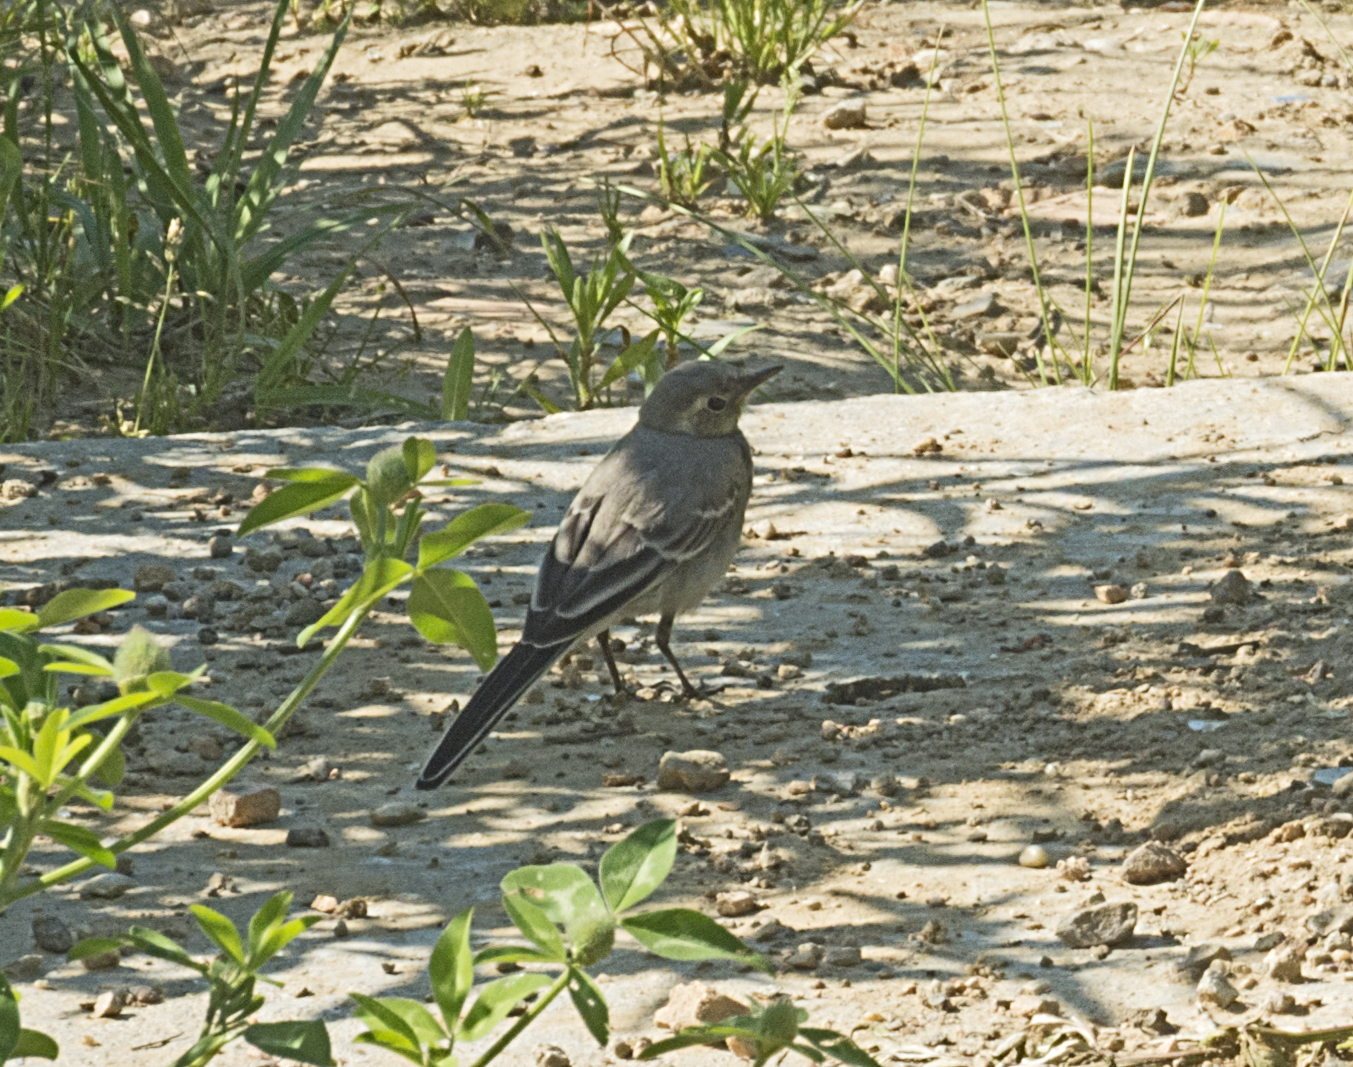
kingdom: Animalia
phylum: Chordata
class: Aves
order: Passeriformes
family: Motacillidae
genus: Motacilla
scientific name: Motacilla alba
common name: White wagtail
